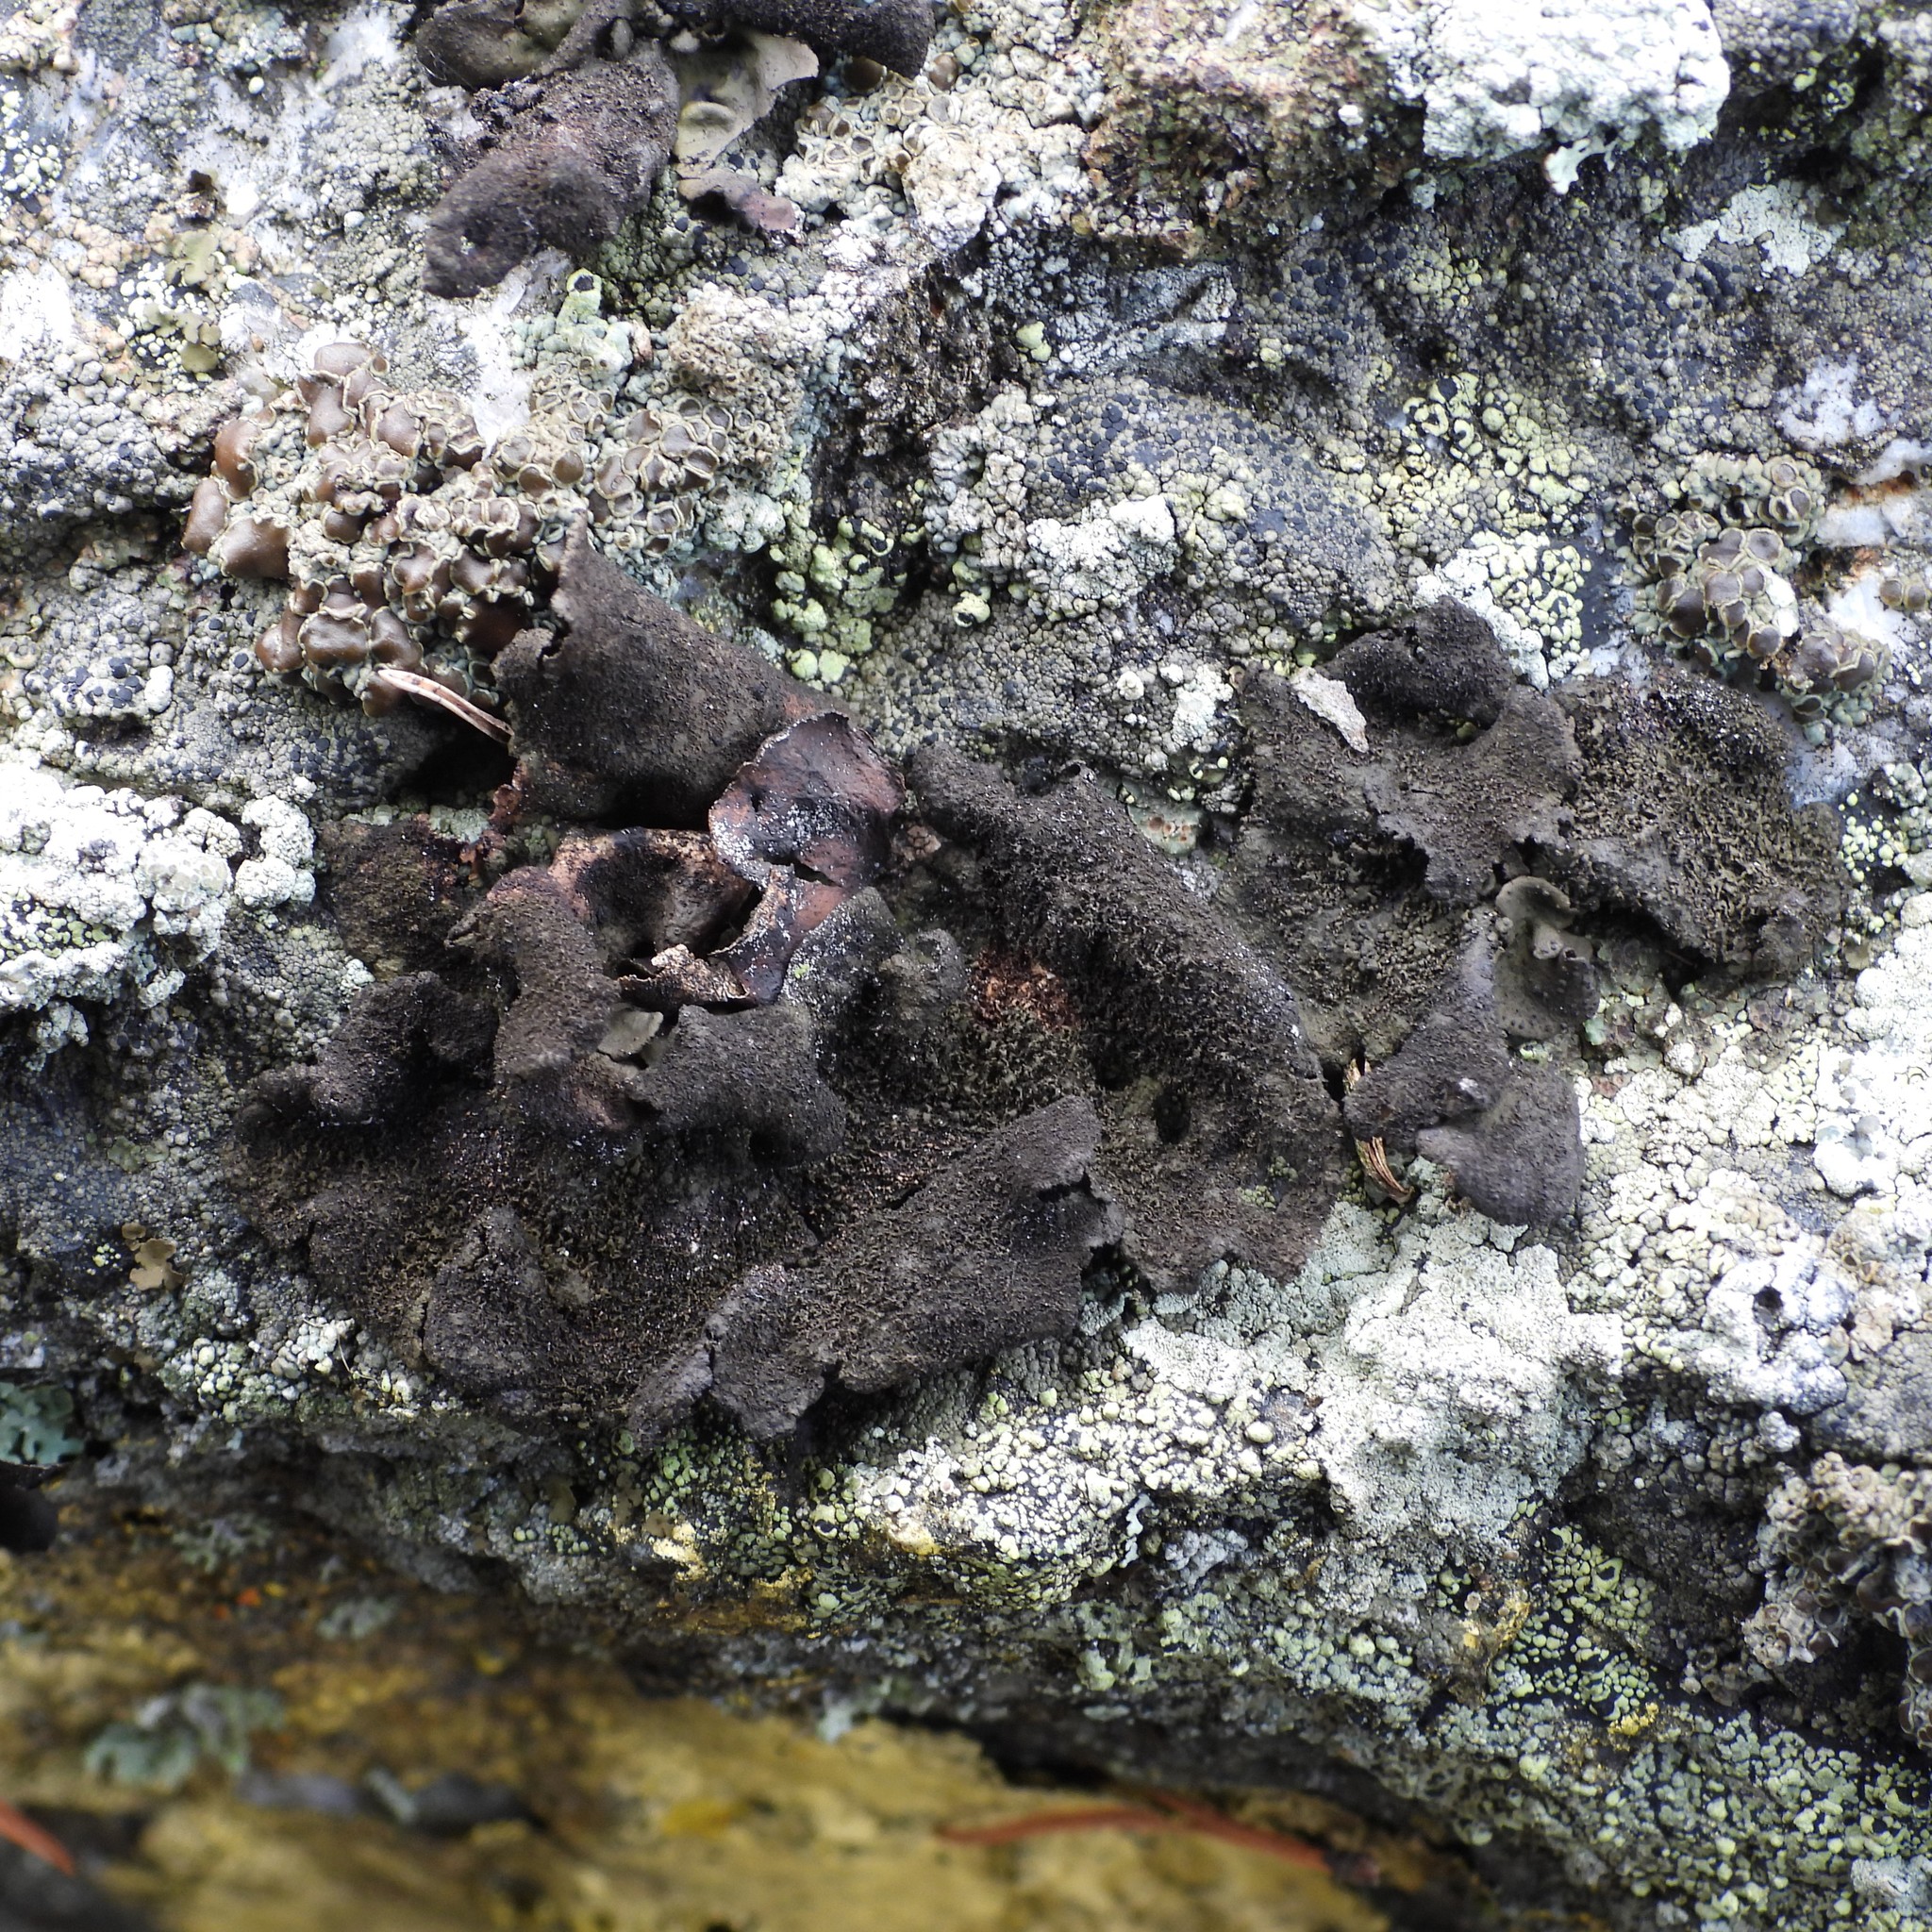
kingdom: Fungi
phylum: Ascomycota
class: Lecanoromycetes
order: Umbilicariales
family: Umbilicariaceae
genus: Umbilicaria
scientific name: Umbilicaria deusta
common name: Peppered rock tripe
